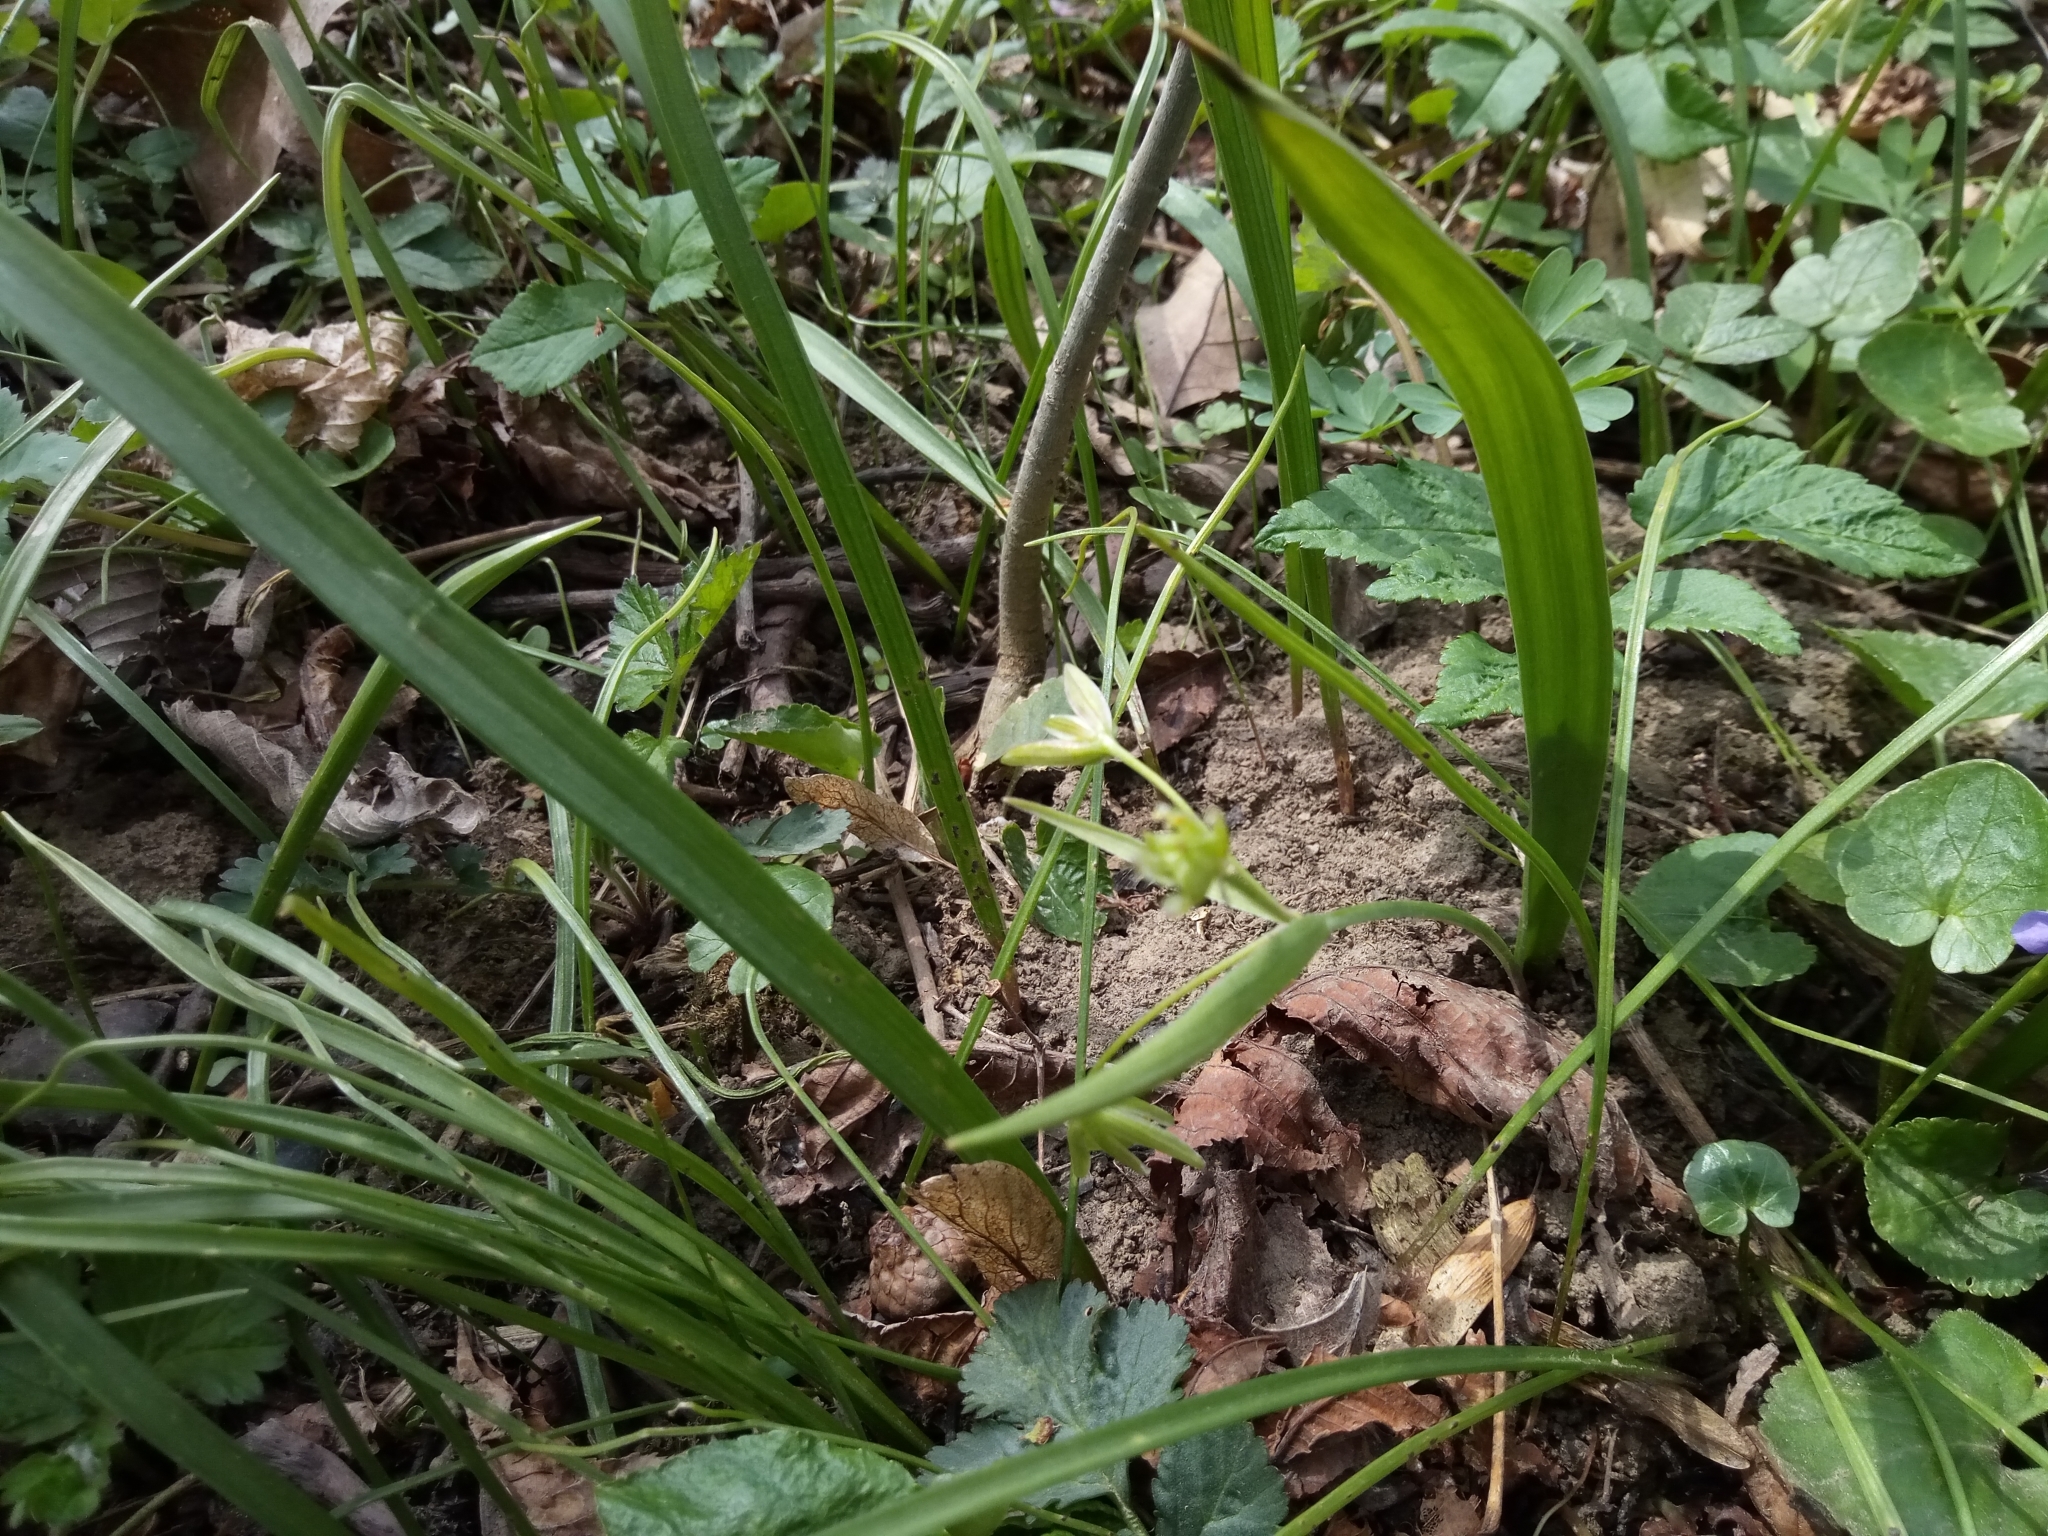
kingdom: Plantae
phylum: Tracheophyta
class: Liliopsida
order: Liliales
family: Liliaceae
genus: Gagea
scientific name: Gagea lutea
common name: Yellow star-of-bethlehem
